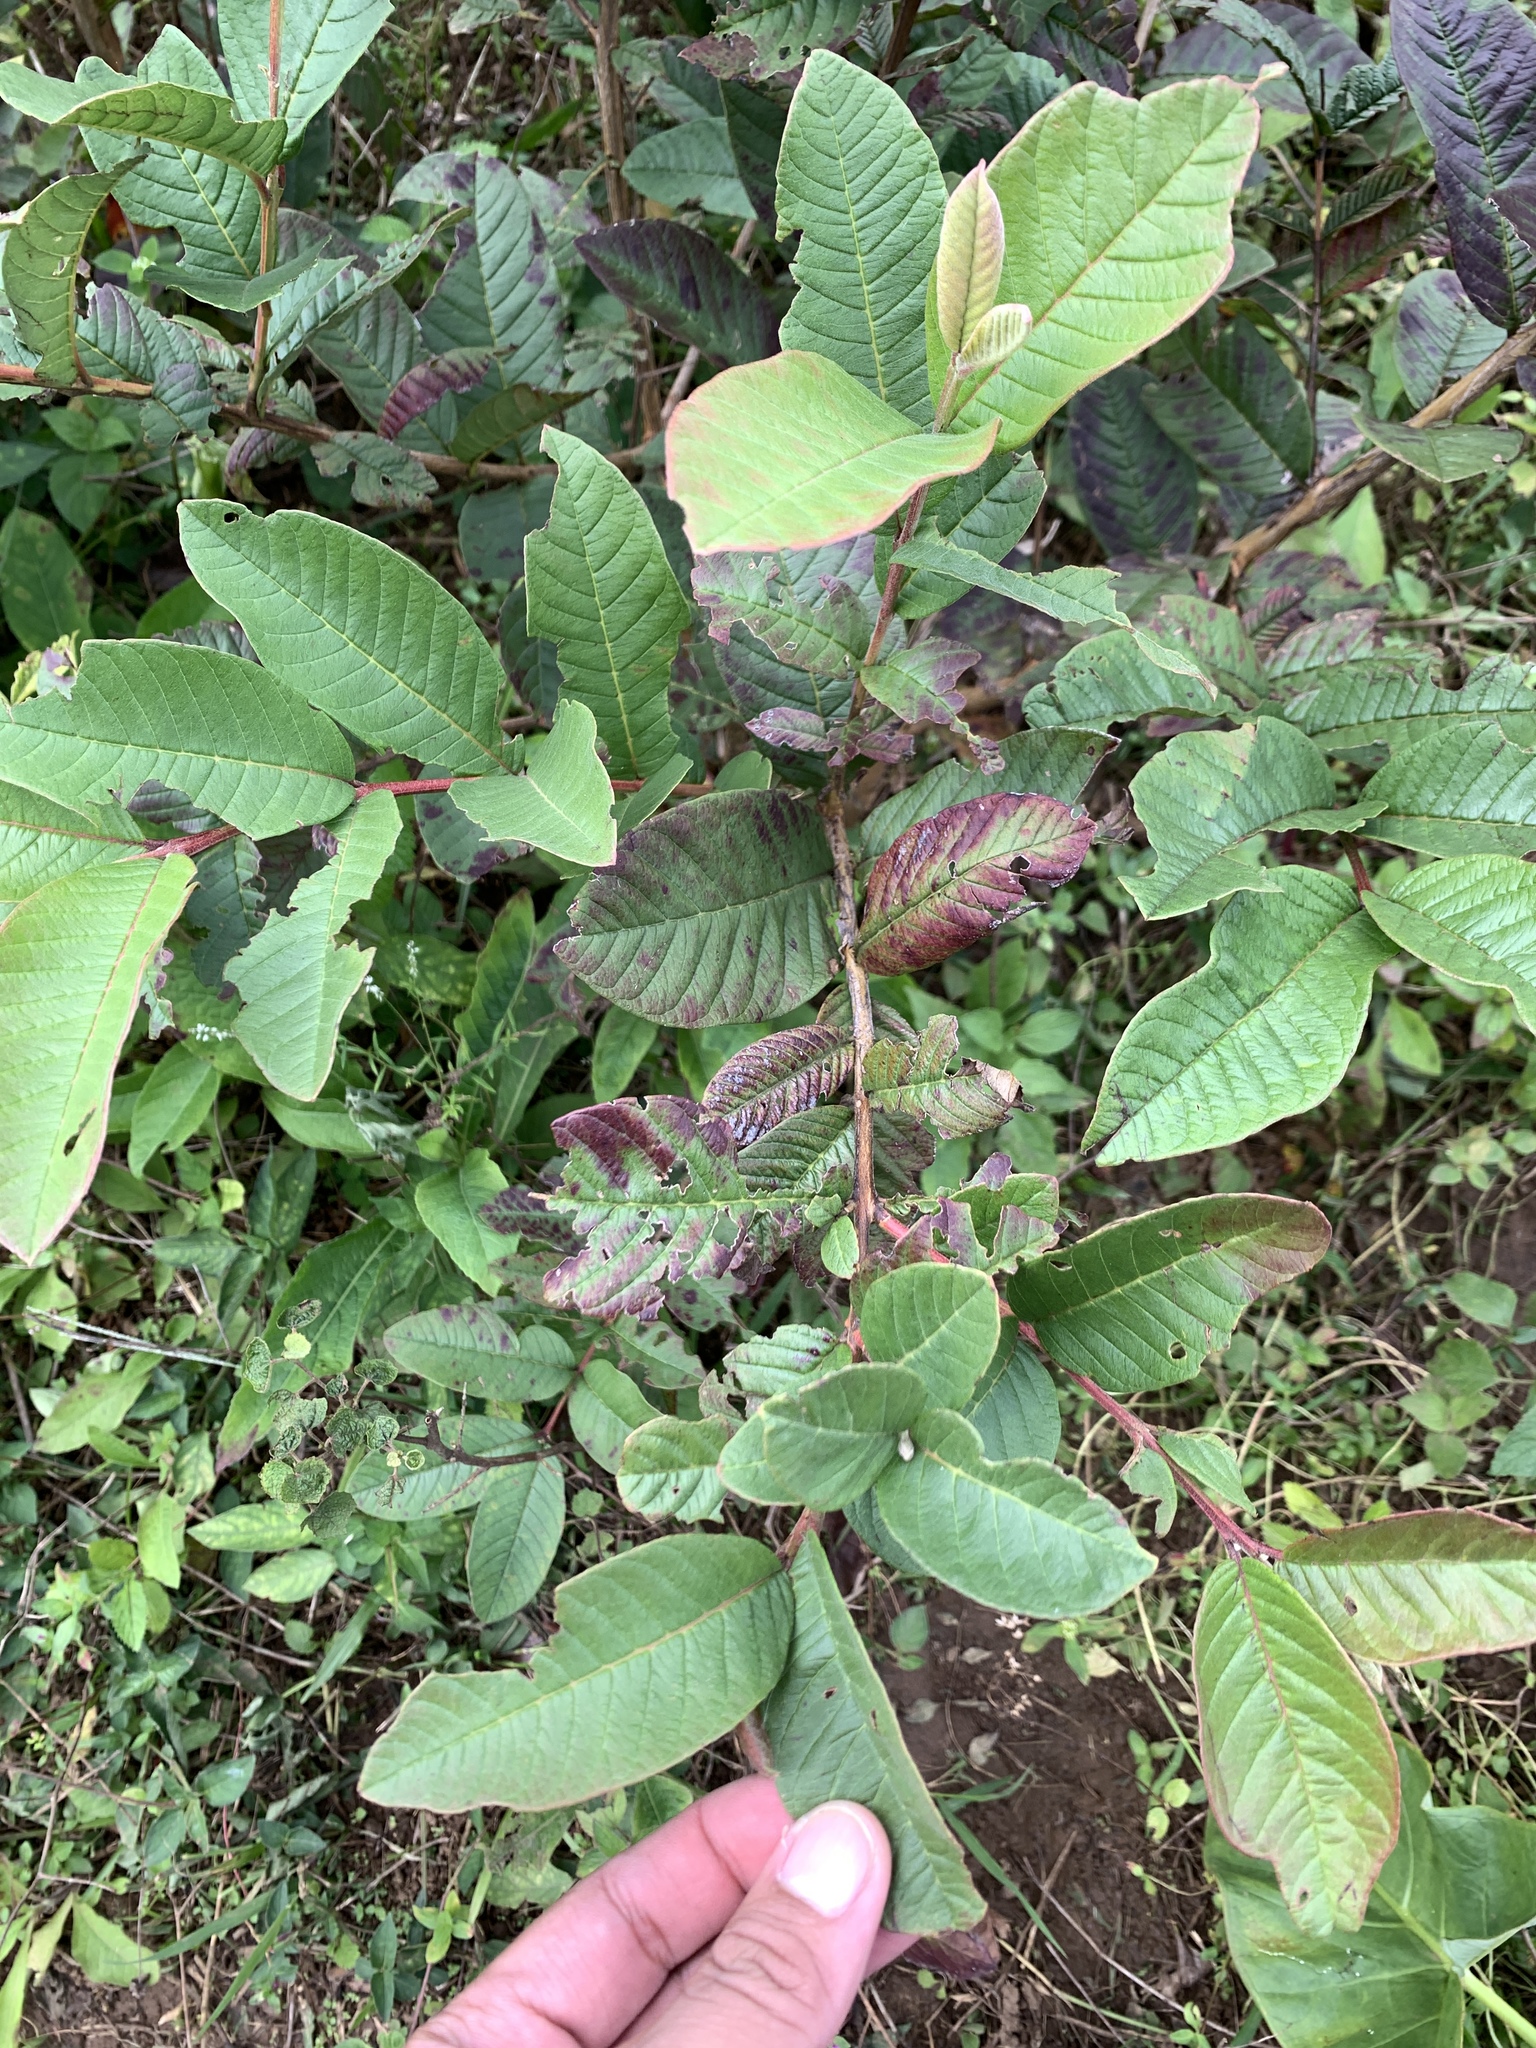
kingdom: Plantae
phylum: Tracheophyta
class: Magnoliopsida
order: Myrtales
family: Myrtaceae
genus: Psidium
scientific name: Psidium guajava
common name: Guava
